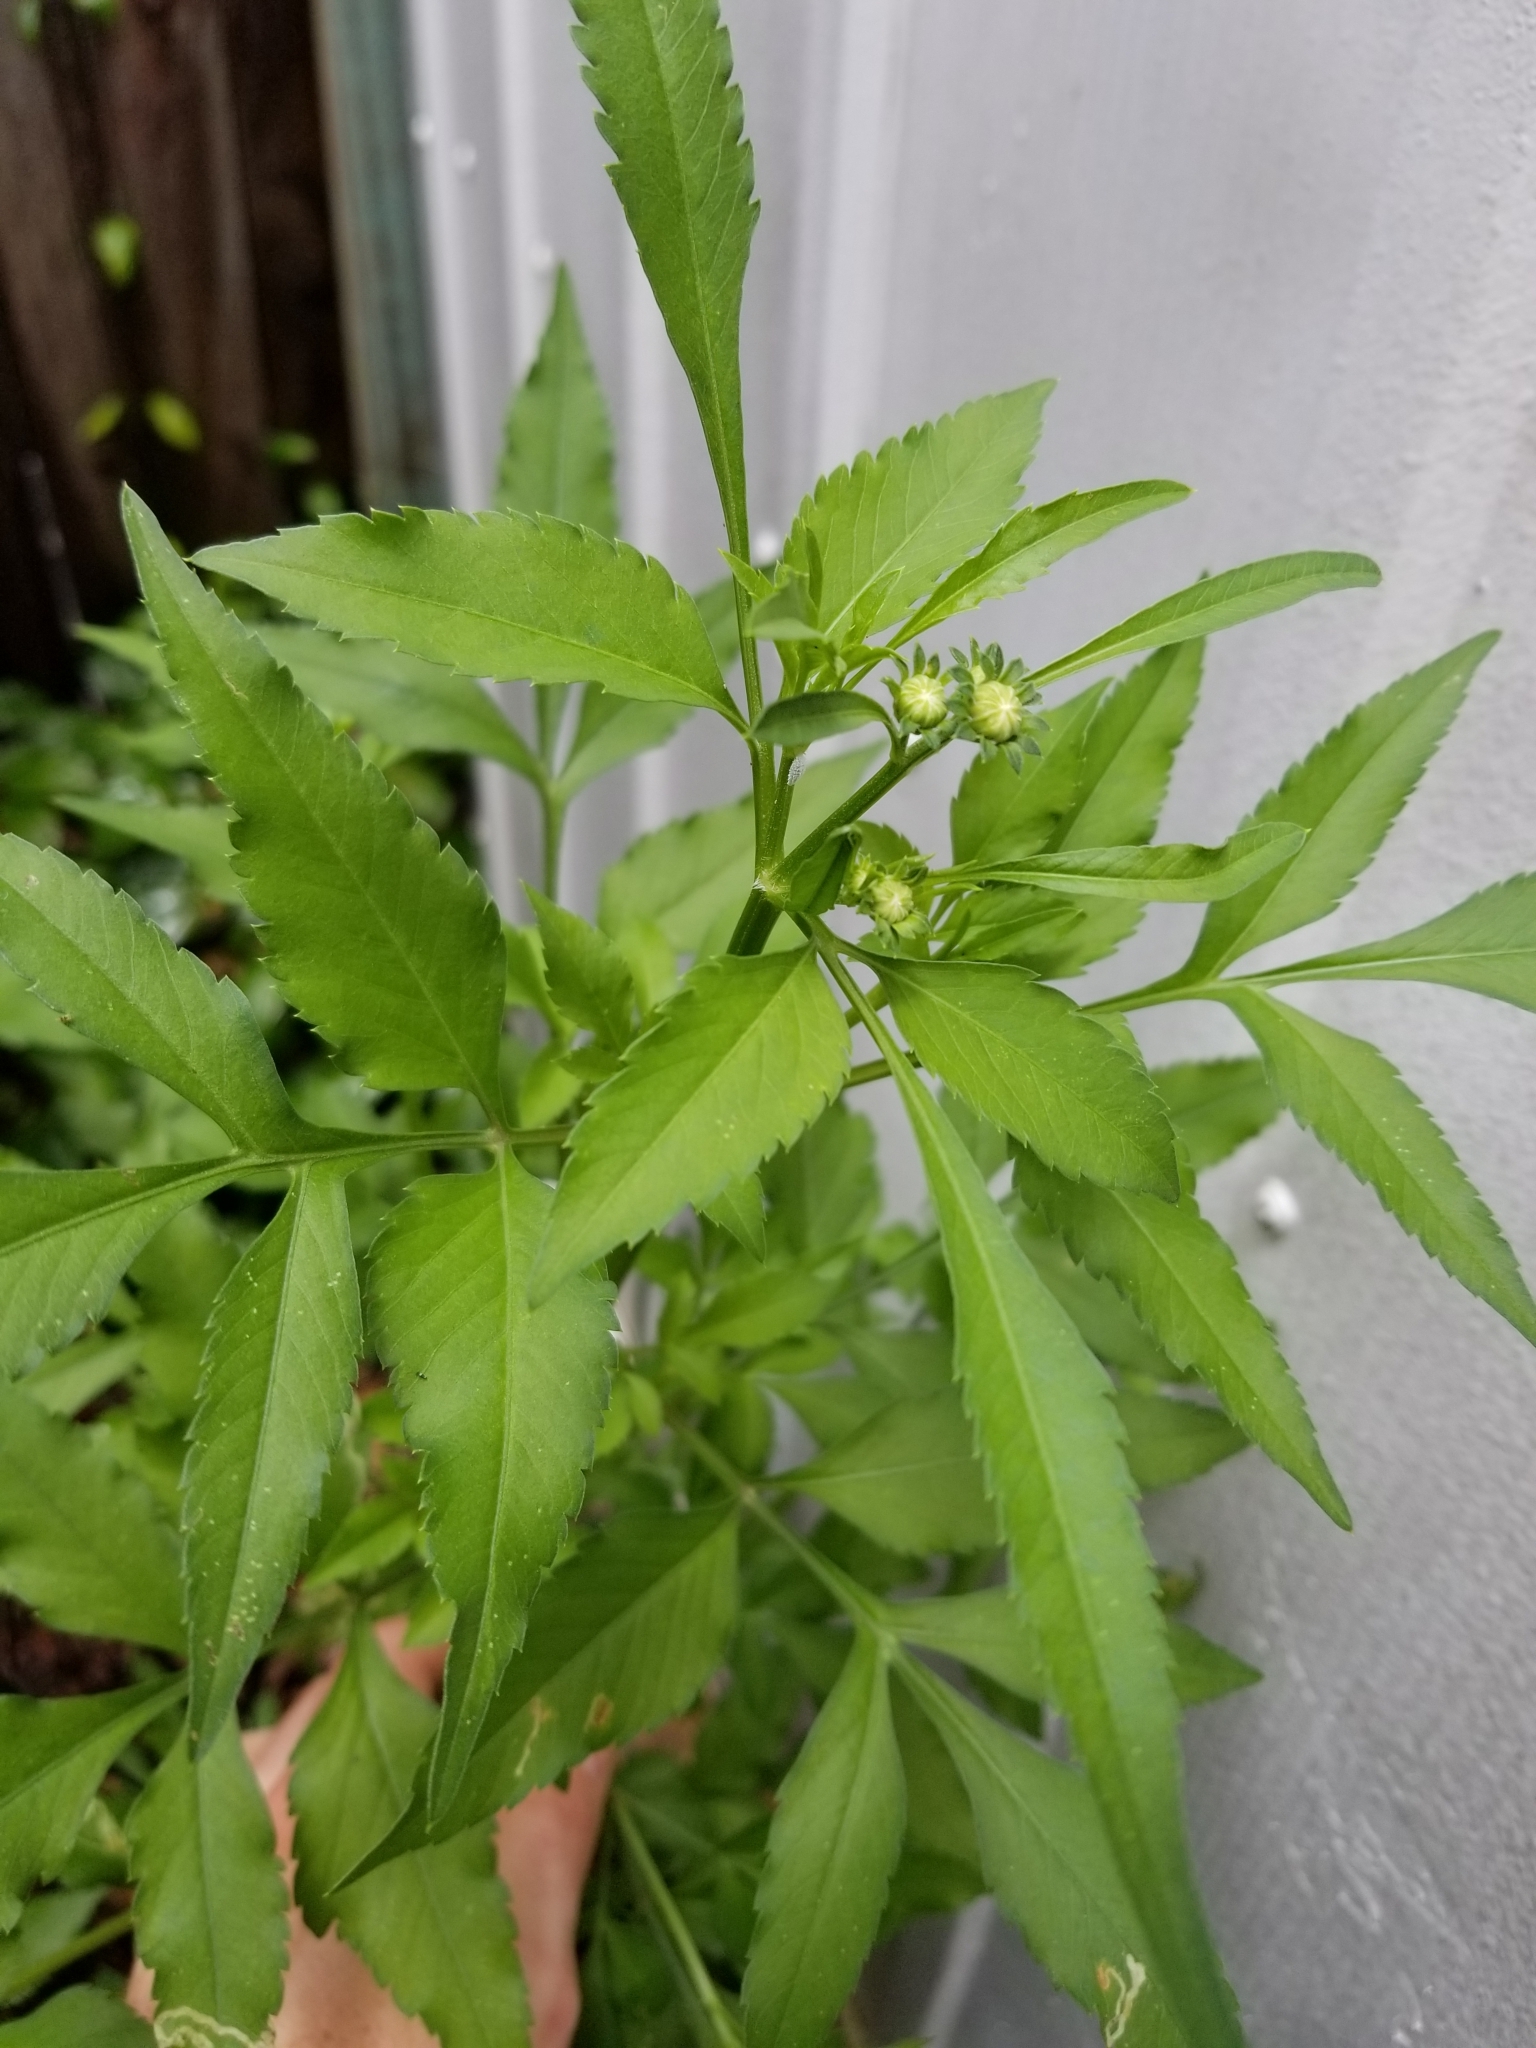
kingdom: Plantae
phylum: Tracheophyta
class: Magnoliopsida
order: Asterales
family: Asteraceae
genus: Bidens
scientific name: Bidens alba
